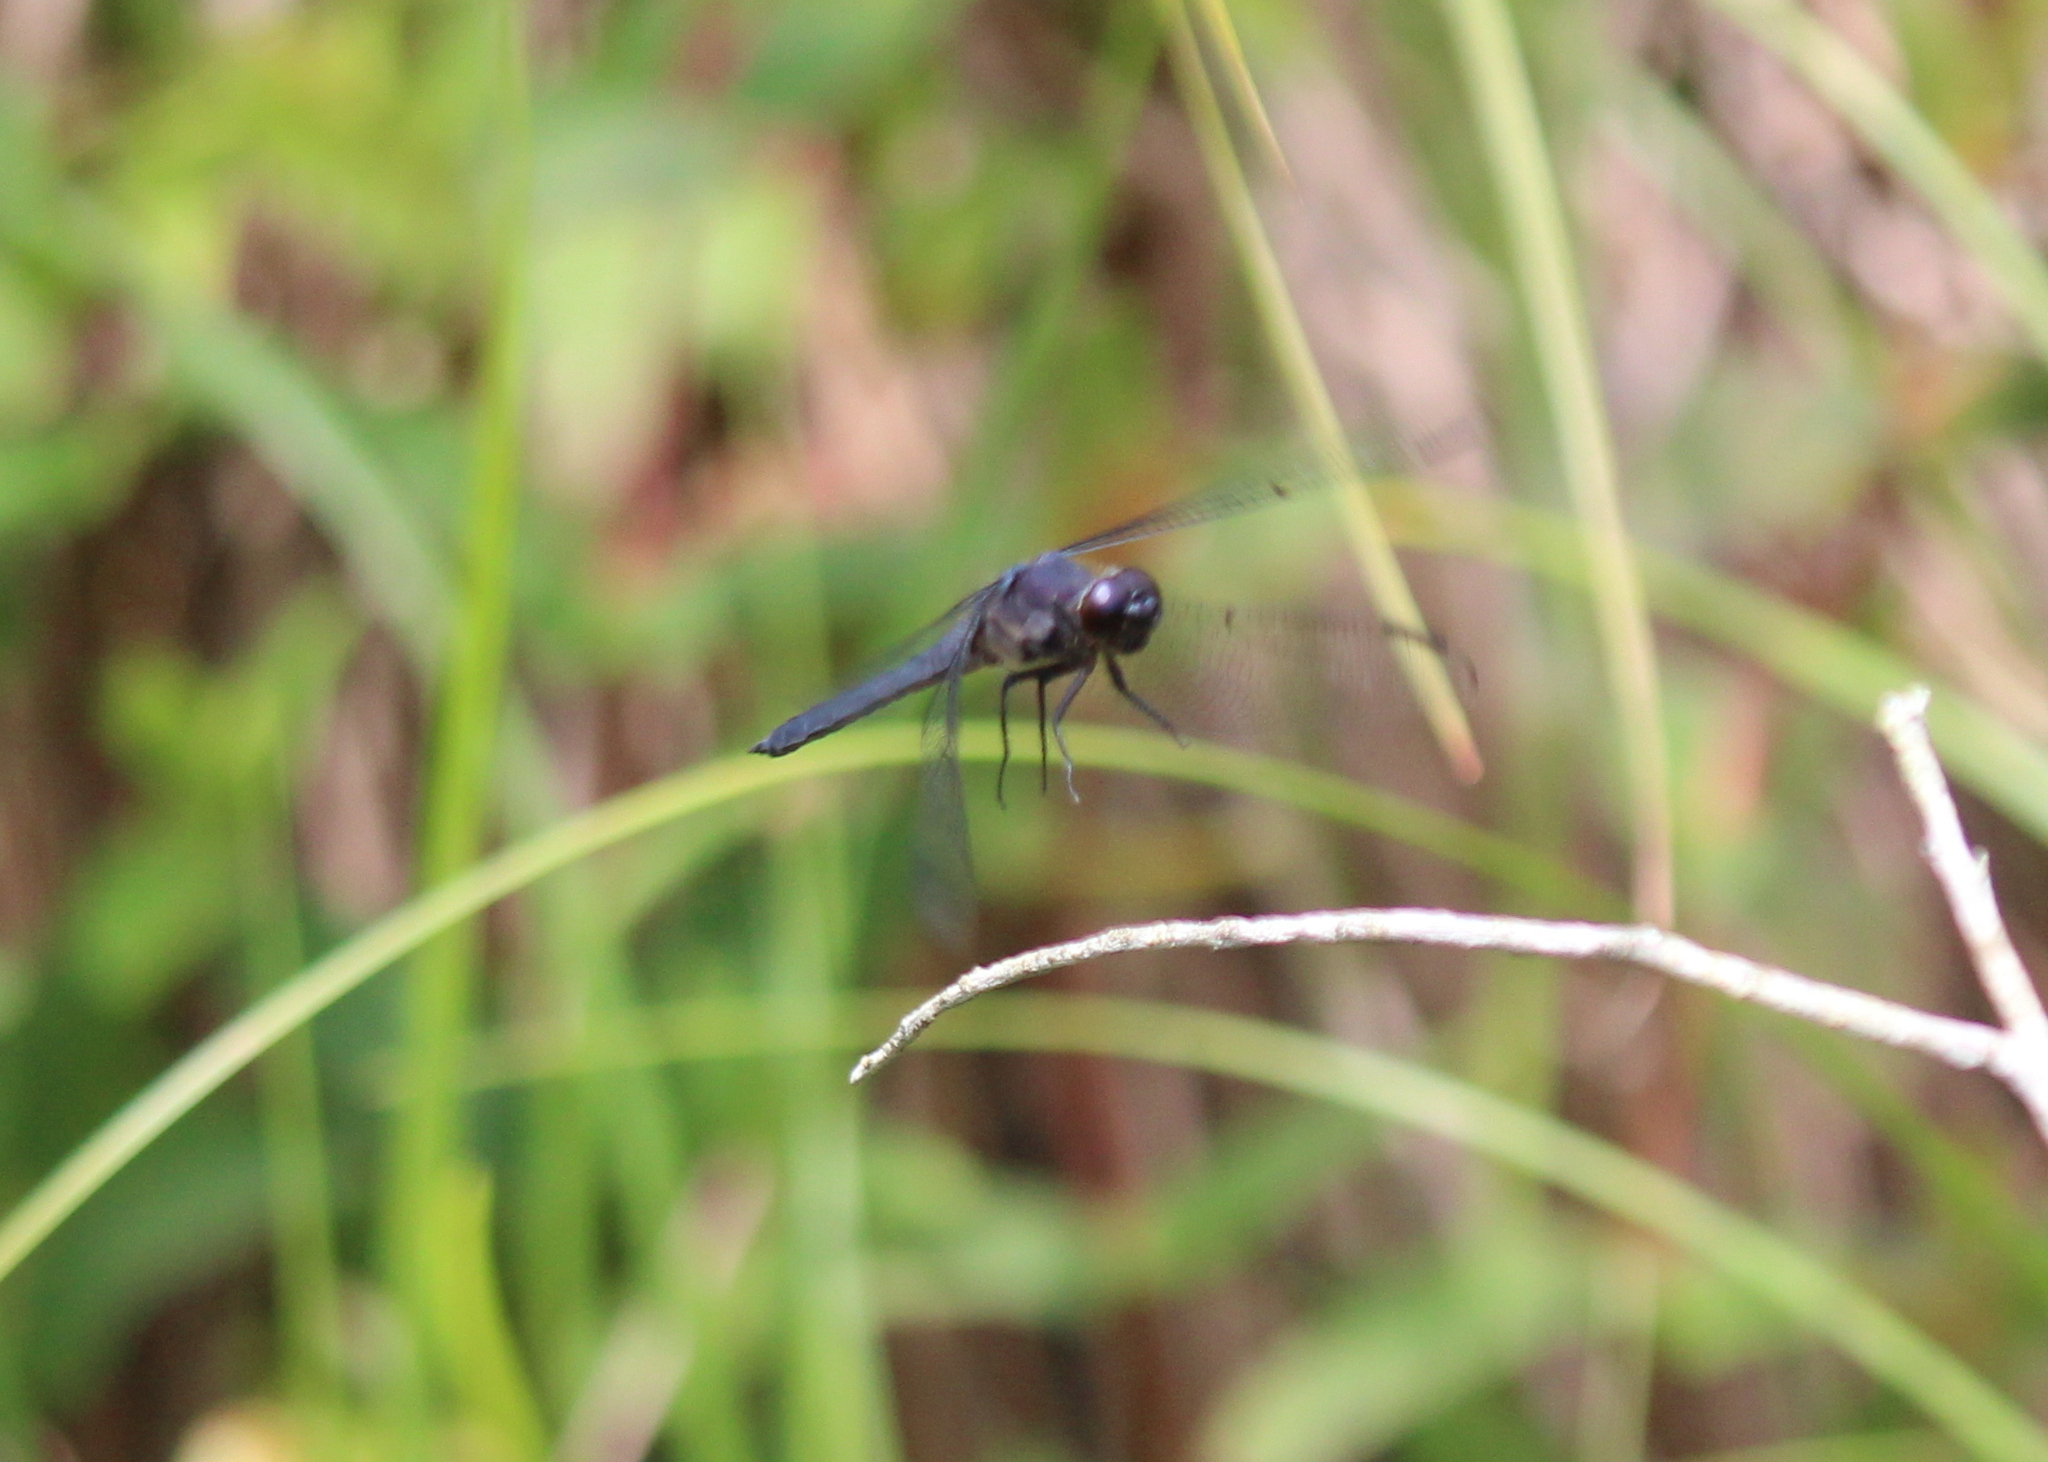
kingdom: Animalia
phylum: Arthropoda
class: Insecta
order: Odonata
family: Libellulidae
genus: Libellula
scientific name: Libellula incesta
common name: Slaty skimmer
